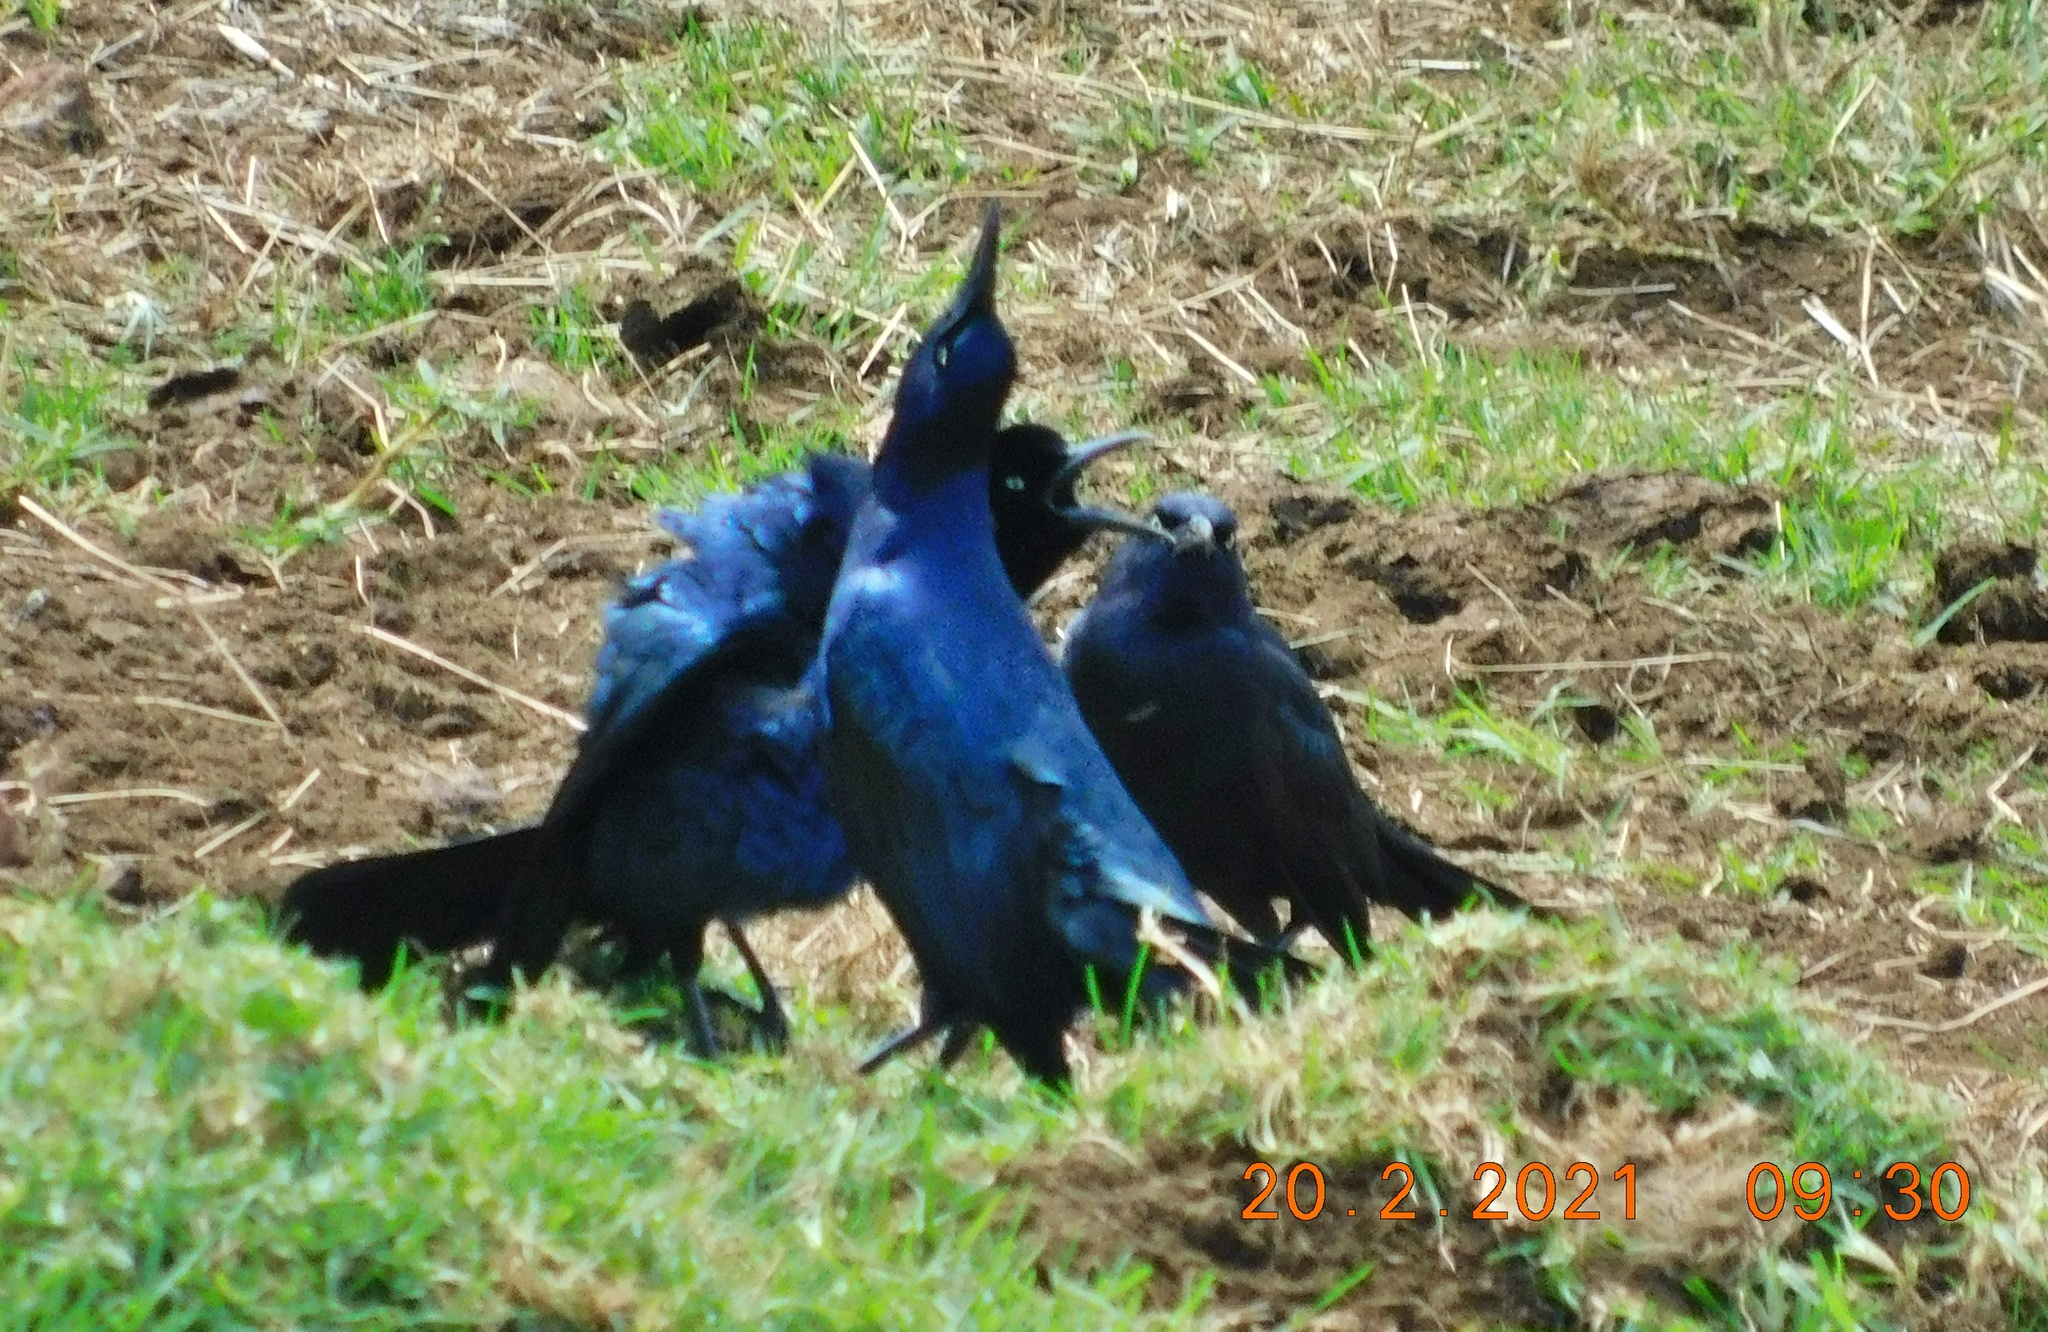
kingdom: Animalia
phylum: Chordata
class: Aves
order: Passeriformes
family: Icteridae
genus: Quiscalus
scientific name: Quiscalus mexicanus
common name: Great-tailed grackle
